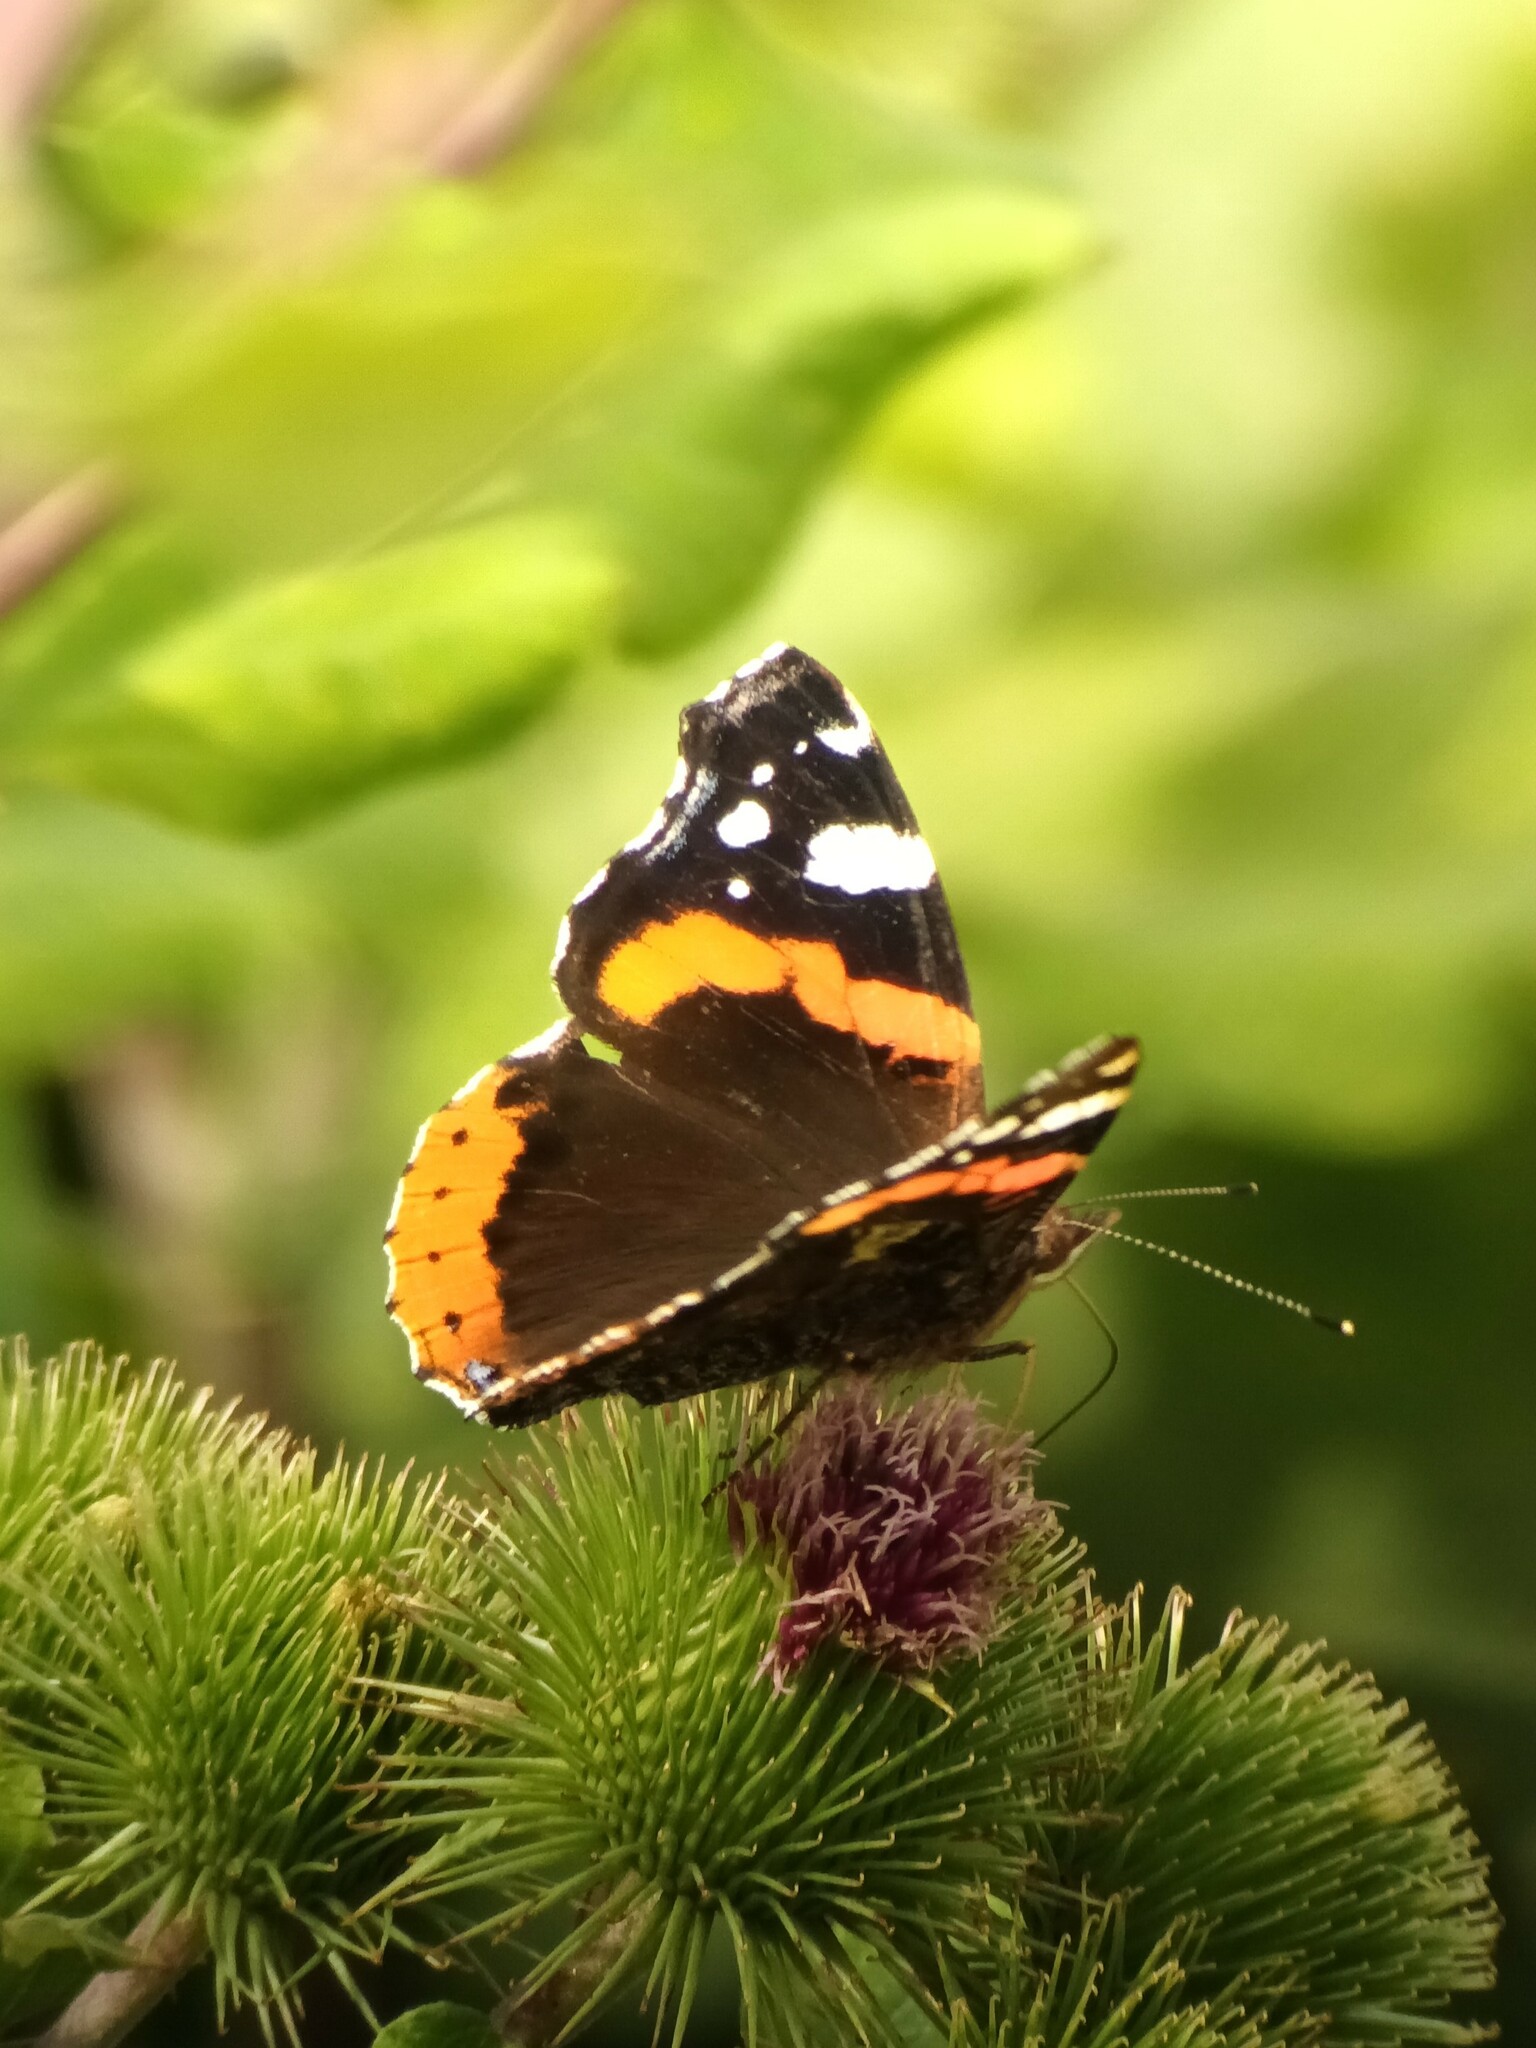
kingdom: Animalia
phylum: Arthropoda
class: Insecta
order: Lepidoptera
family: Nymphalidae
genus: Vanessa
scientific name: Vanessa atalanta
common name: Red admiral
